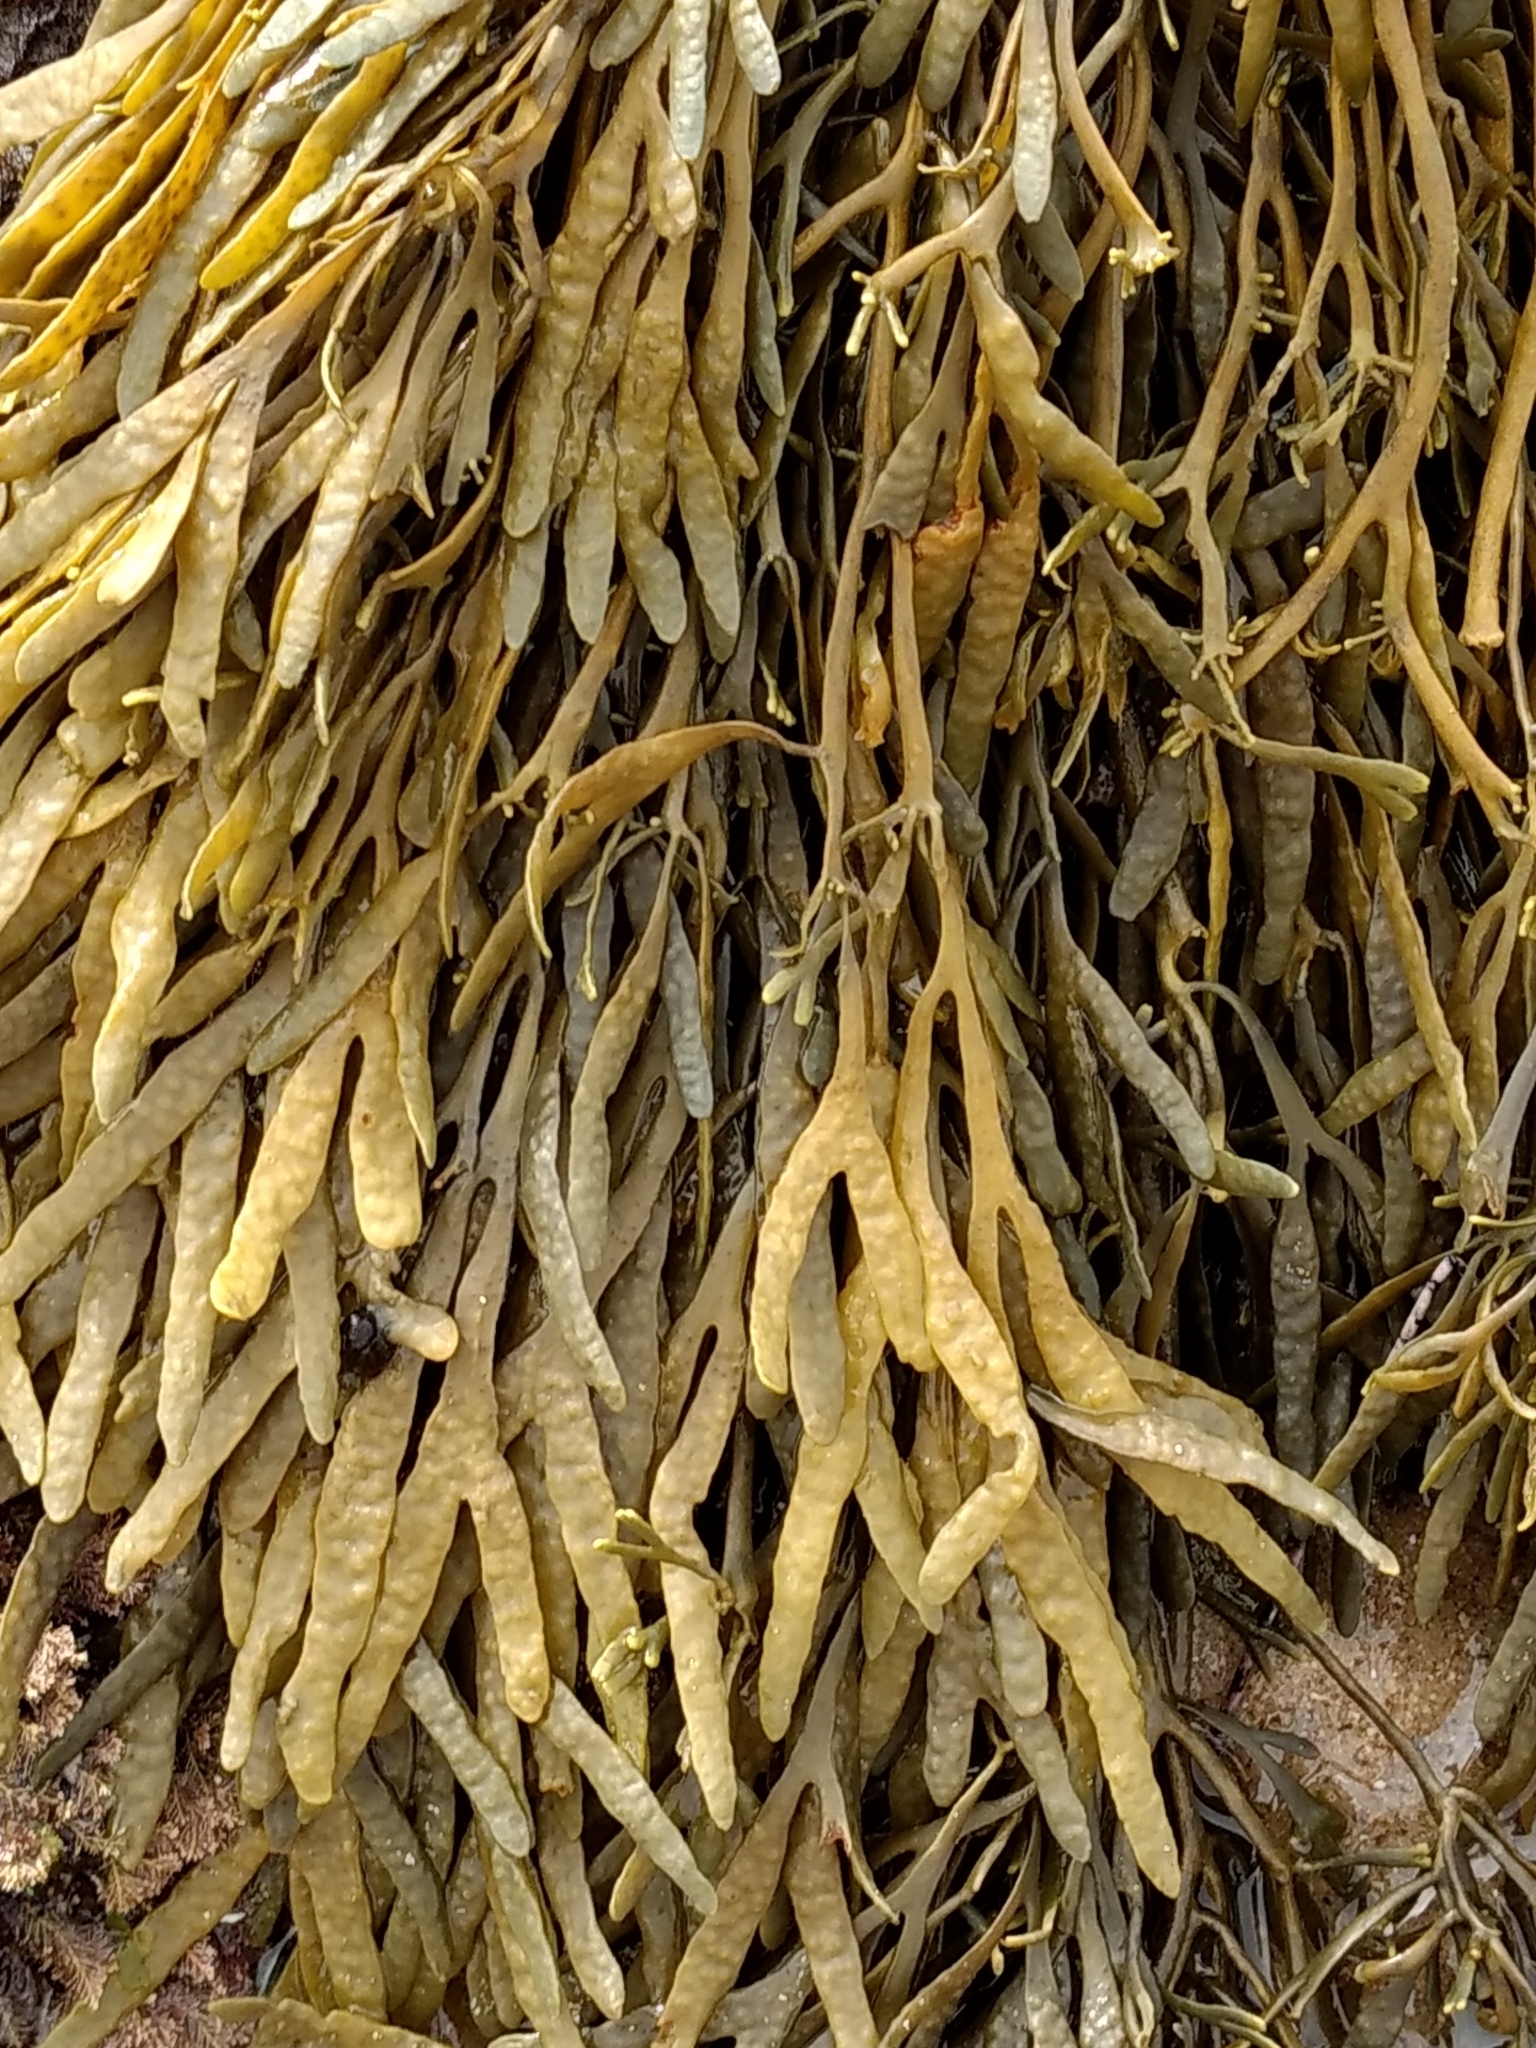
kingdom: Chromista
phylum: Ochrophyta
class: Phaeophyceae
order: Fucales
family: Fucaceae
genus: Silvetia
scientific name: Silvetia
